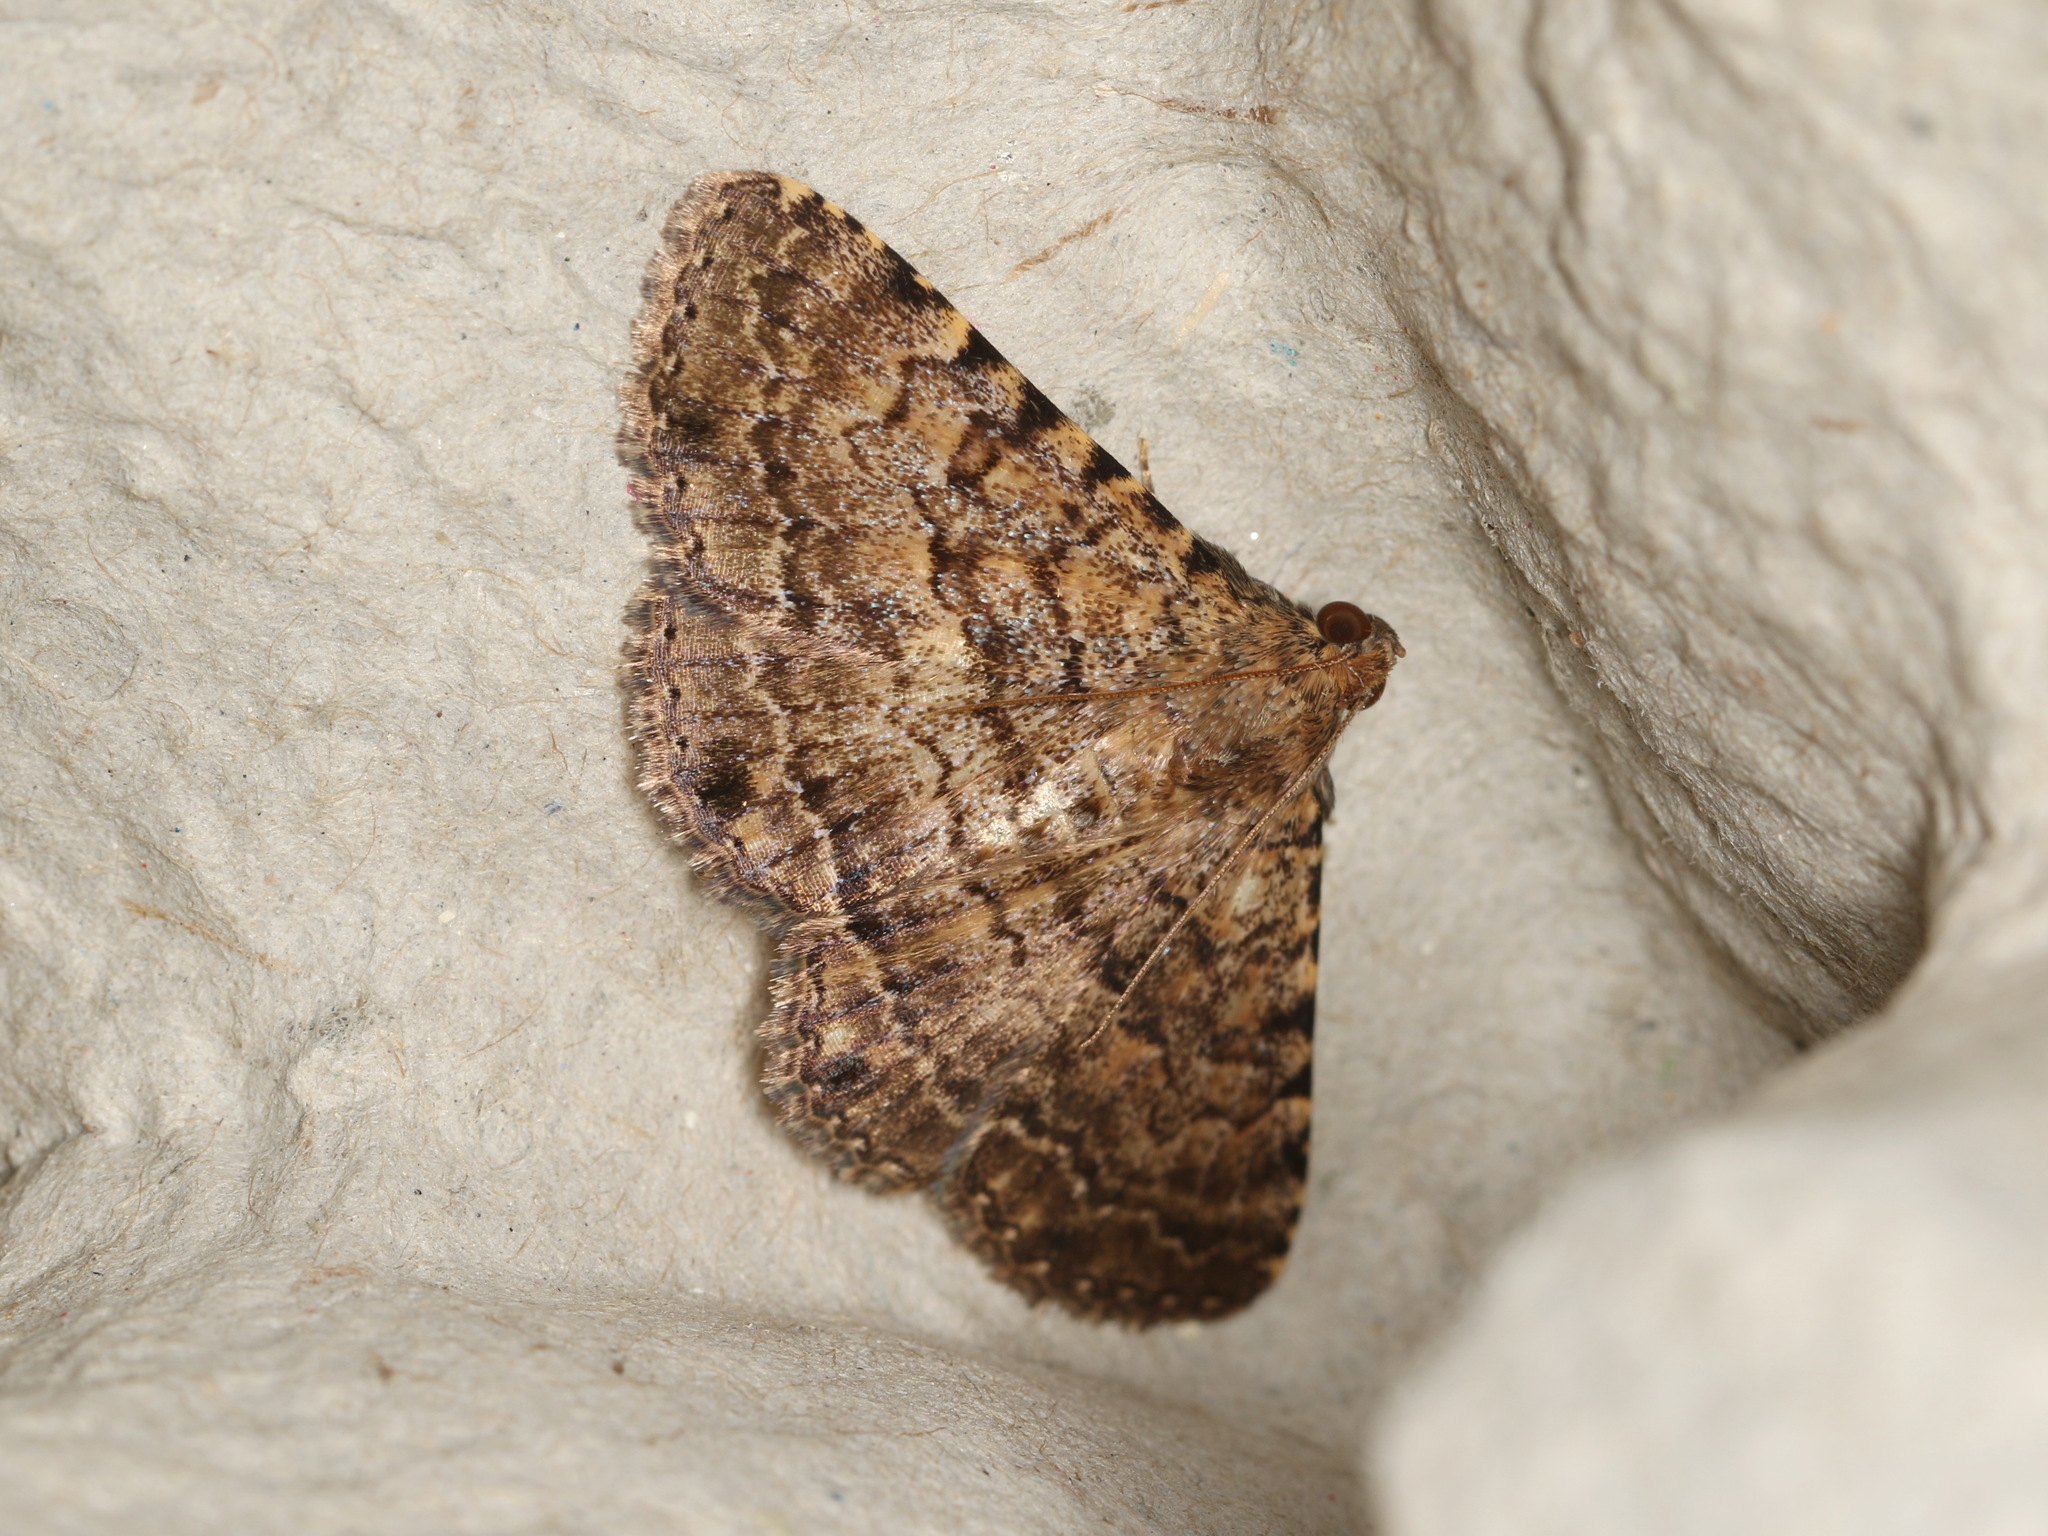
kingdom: Animalia
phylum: Arthropoda
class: Insecta
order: Lepidoptera
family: Erebidae
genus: Diatenes
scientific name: Diatenes aglossoides
